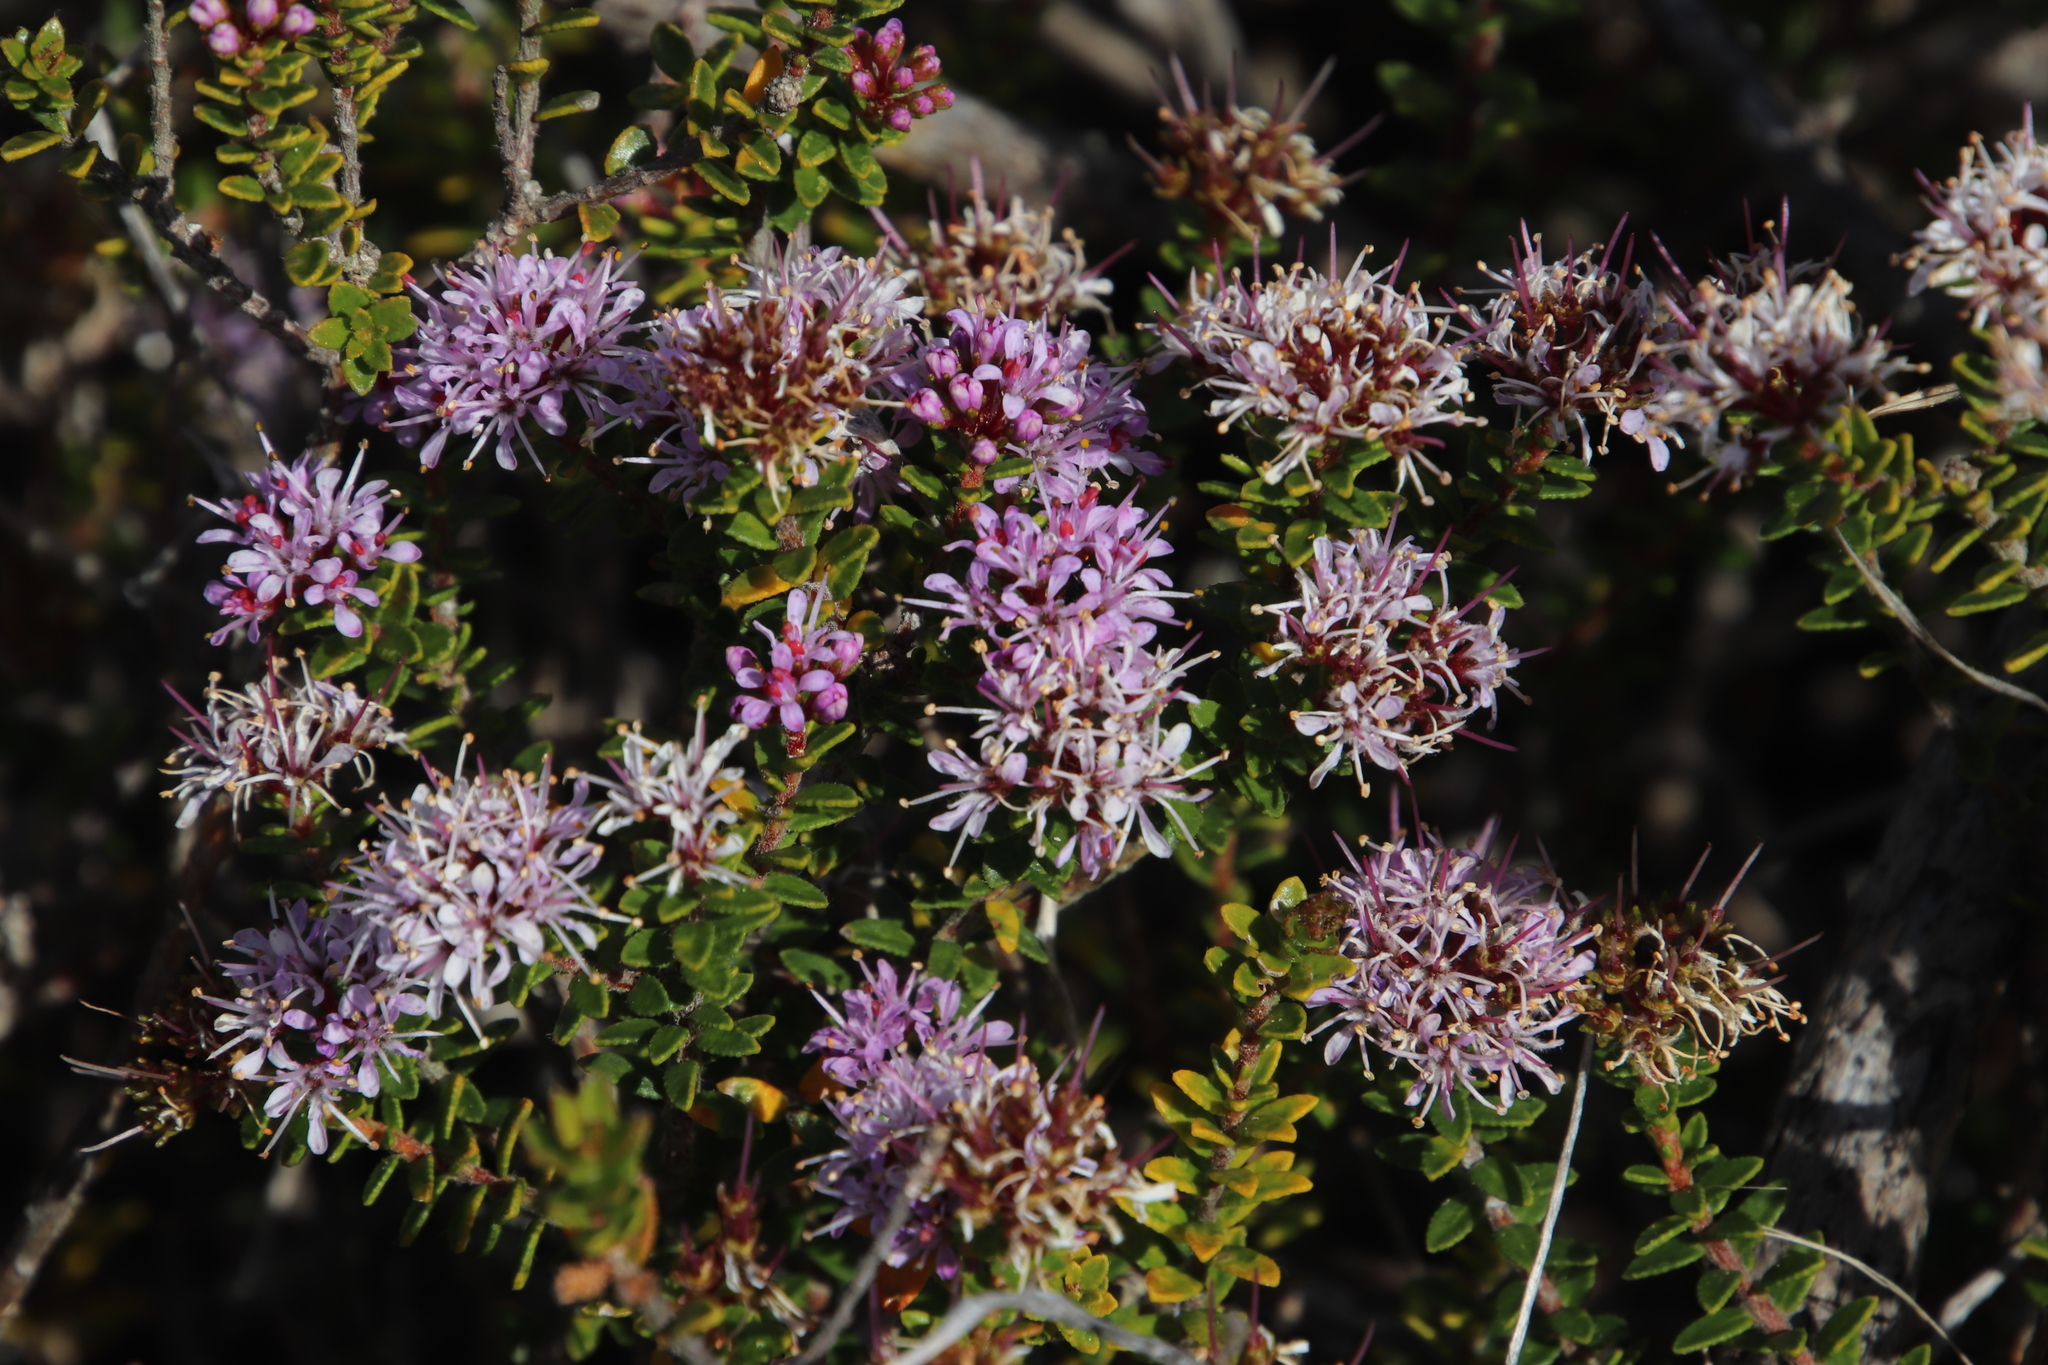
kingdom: Plantae
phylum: Tracheophyta
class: Magnoliopsida
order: Sapindales
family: Rutaceae
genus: Agathosma
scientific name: Agathosma ciliaris
